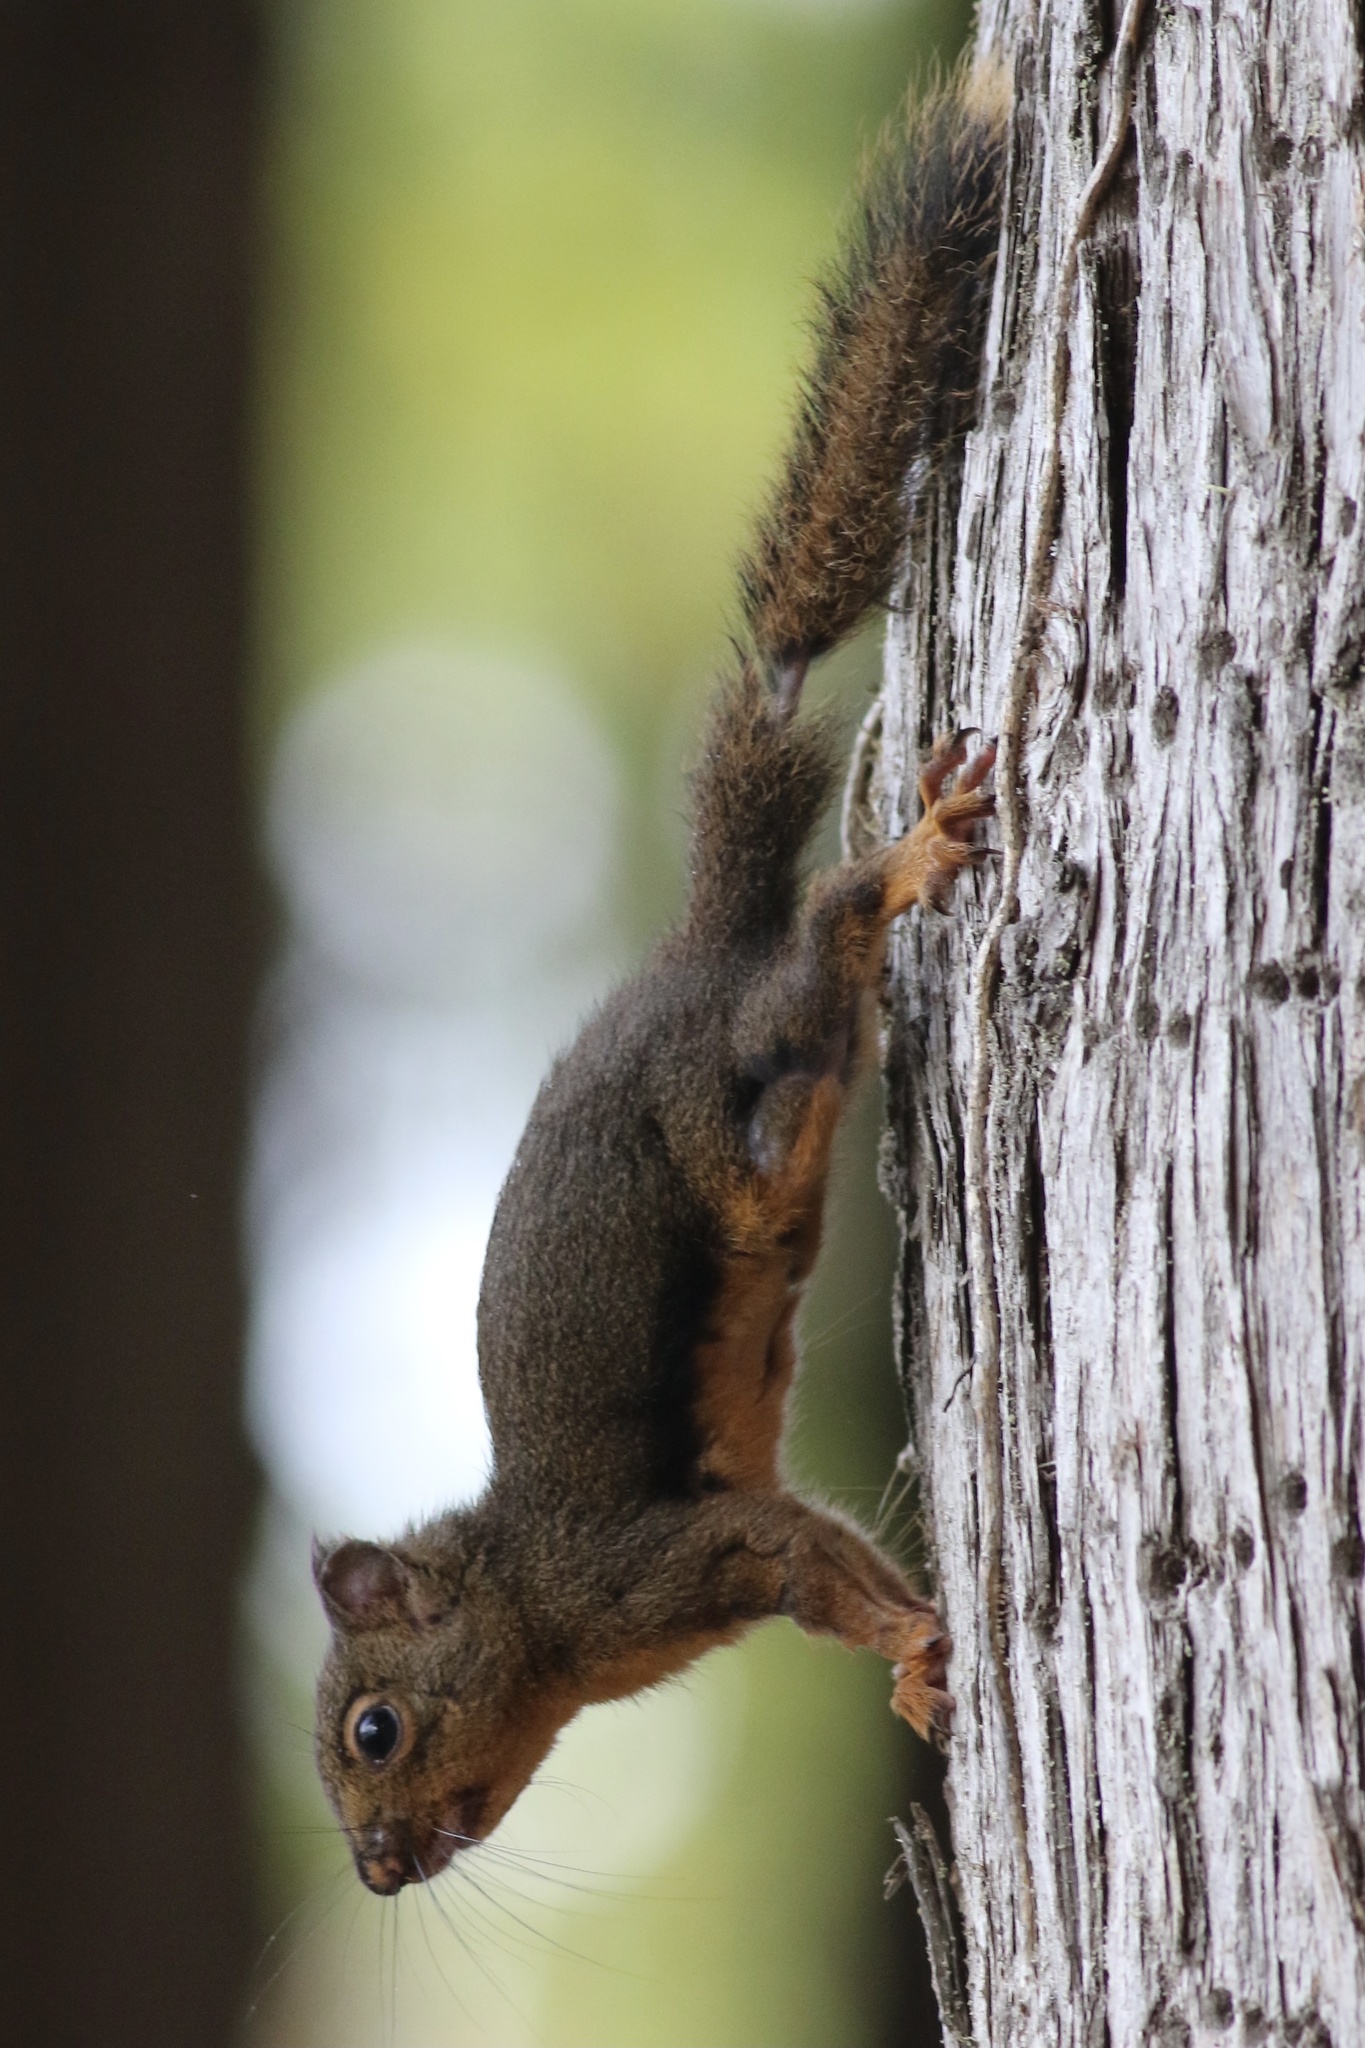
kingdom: Animalia
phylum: Chordata
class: Mammalia
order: Rodentia
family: Sciuridae
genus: Tamiasciurus
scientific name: Tamiasciurus douglasii
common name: Douglas's squirrel
